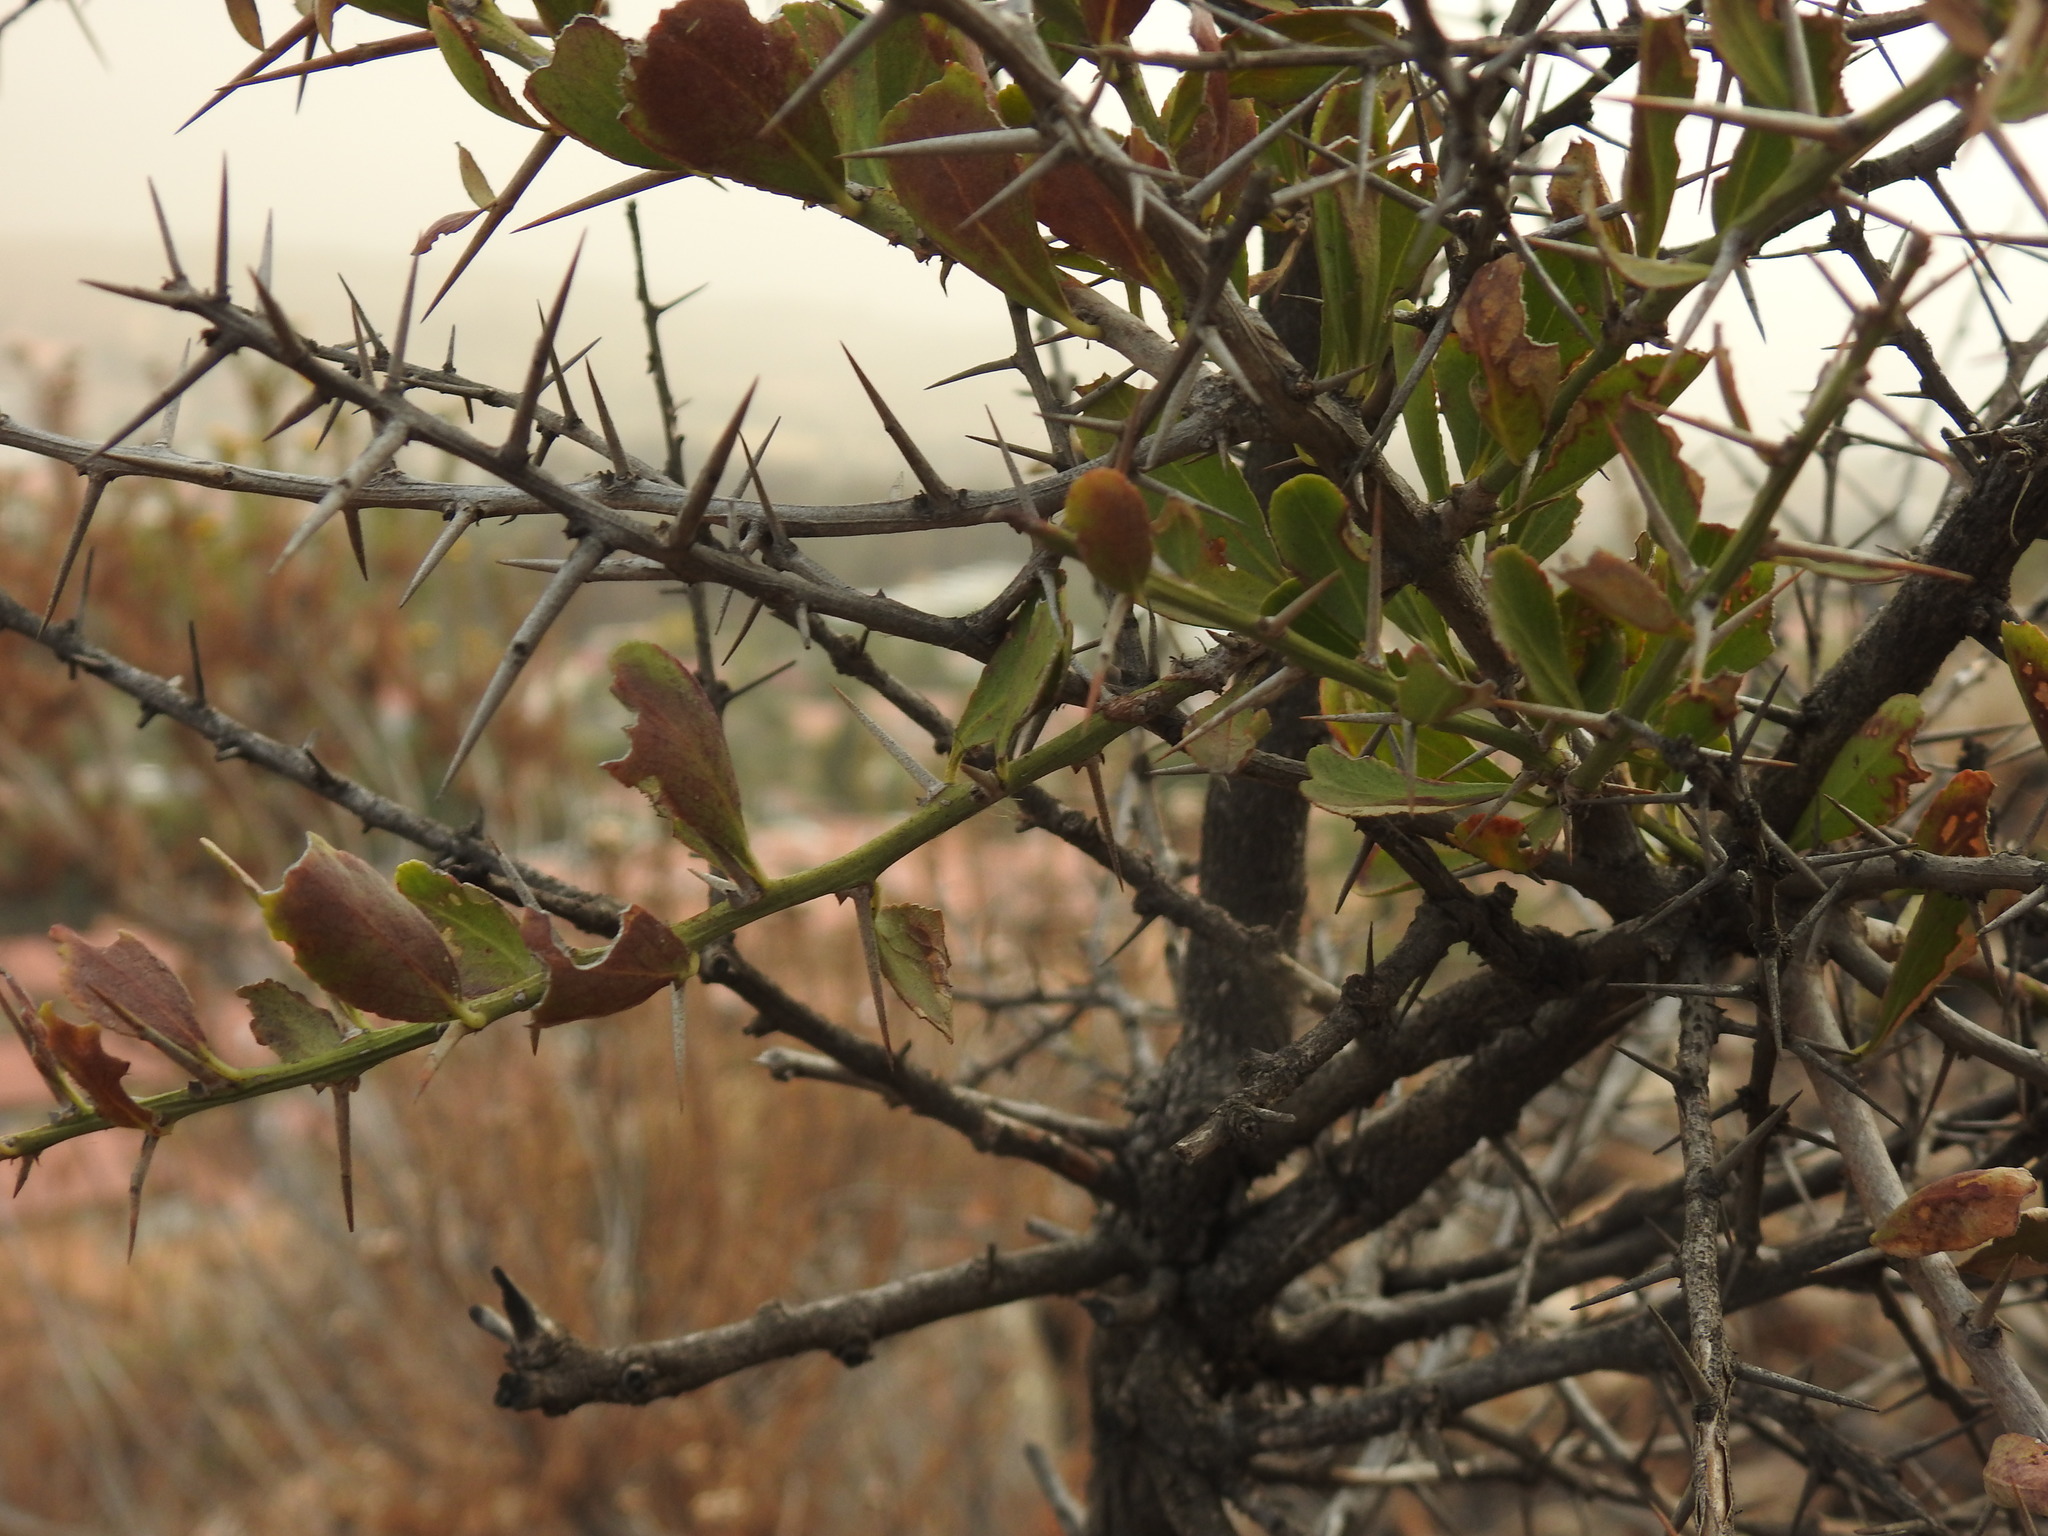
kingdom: Plantae
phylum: Tracheophyta
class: Magnoliopsida
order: Celastrales
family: Celastraceae
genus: Gymnosporia
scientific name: Gymnosporia buxifolia
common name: Common spike-thorn
